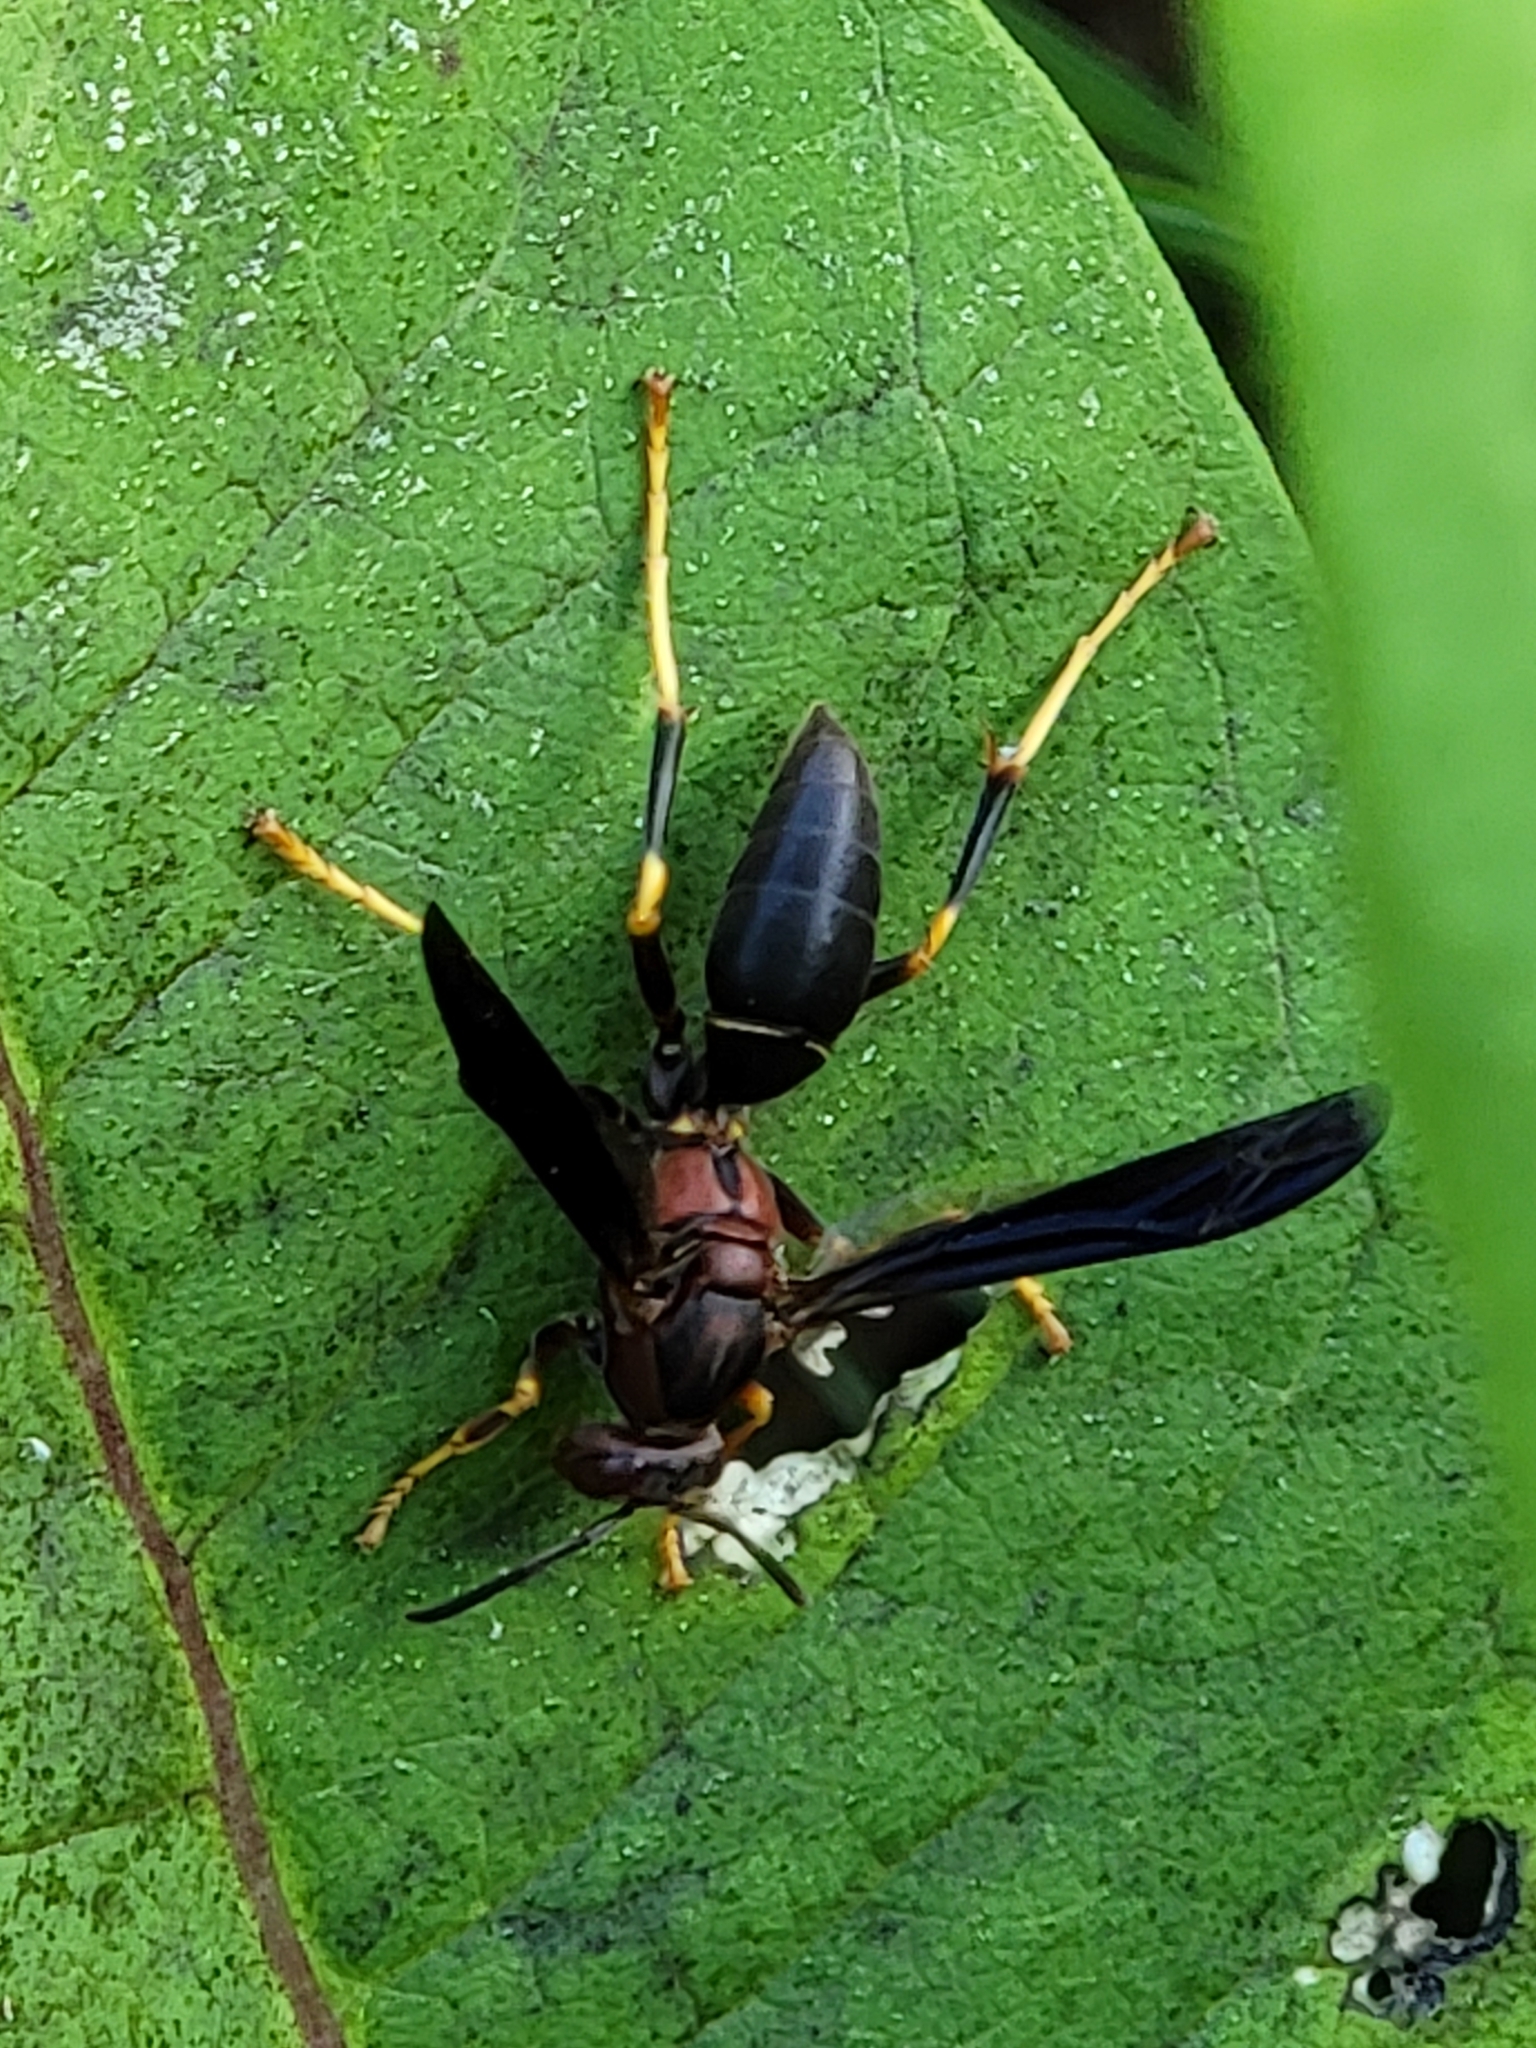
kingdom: Animalia
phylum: Arthropoda
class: Insecta
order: Hymenoptera
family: Eumenidae
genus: Polistes
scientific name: Polistes metricus
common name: Metric paper wasp
